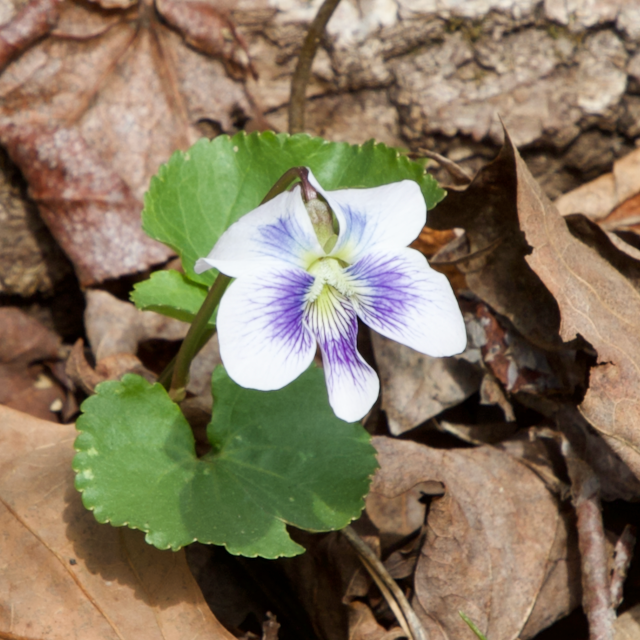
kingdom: Plantae
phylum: Tracheophyta
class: Magnoliopsida
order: Malpighiales
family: Violaceae
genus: Viola
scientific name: Viola sororia
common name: Dooryard violet
